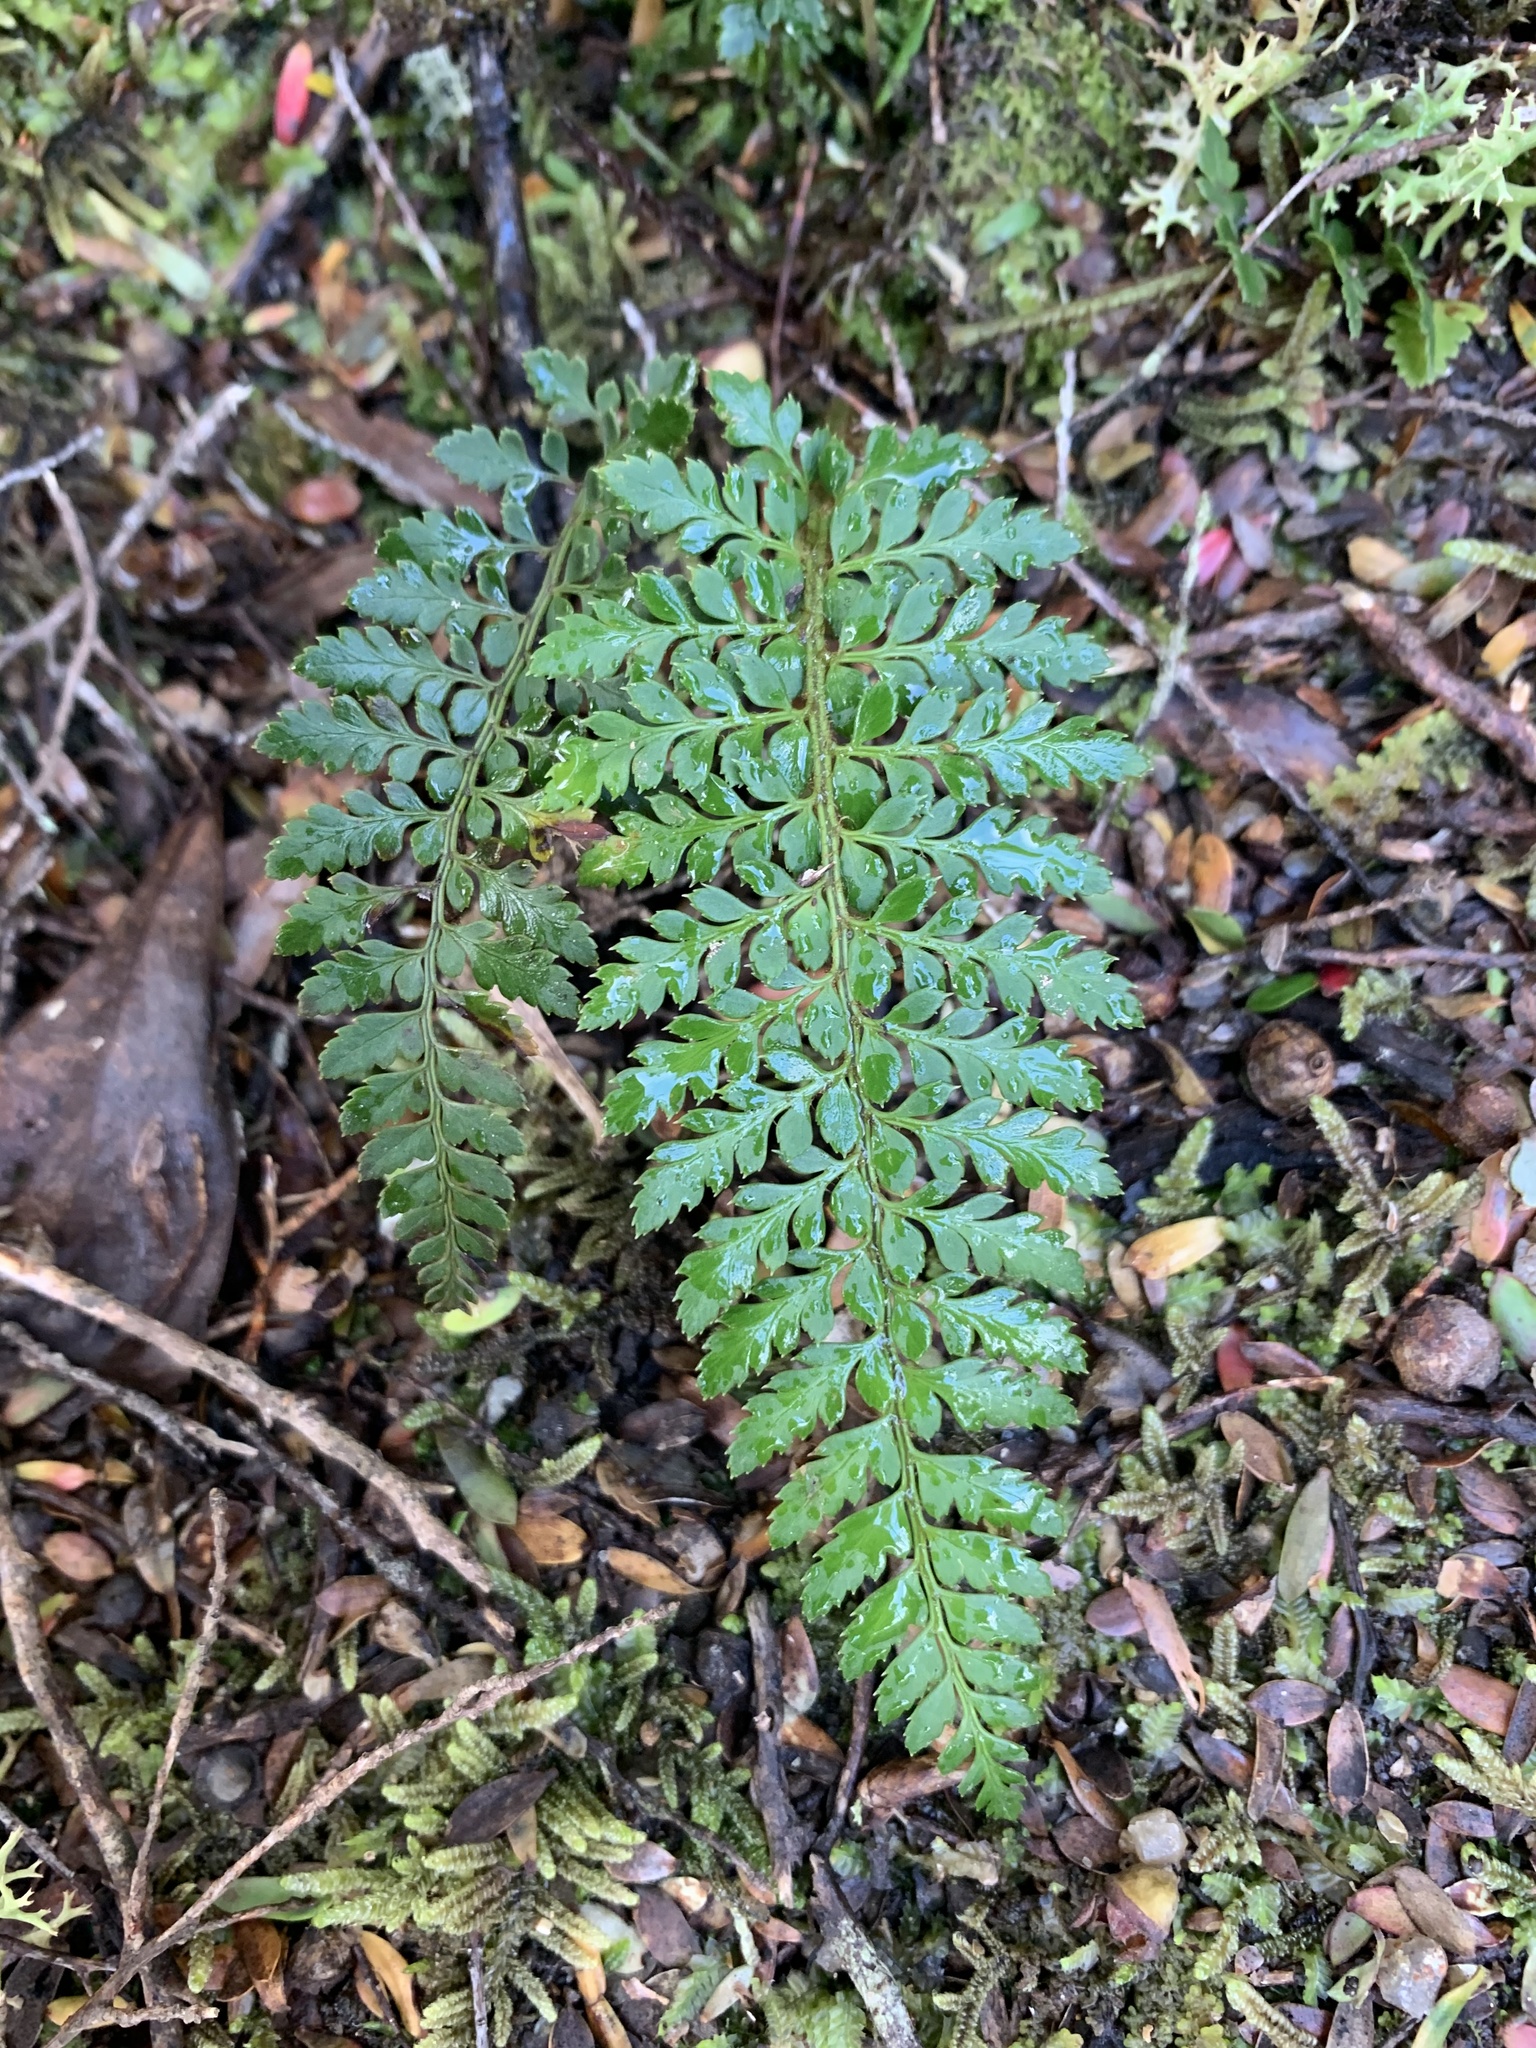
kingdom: Plantae
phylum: Tracheophyta
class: Polypodiopsida
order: Polypodiales
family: Dryopteridaceae
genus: Polystichum
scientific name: Polystichum proliferum
